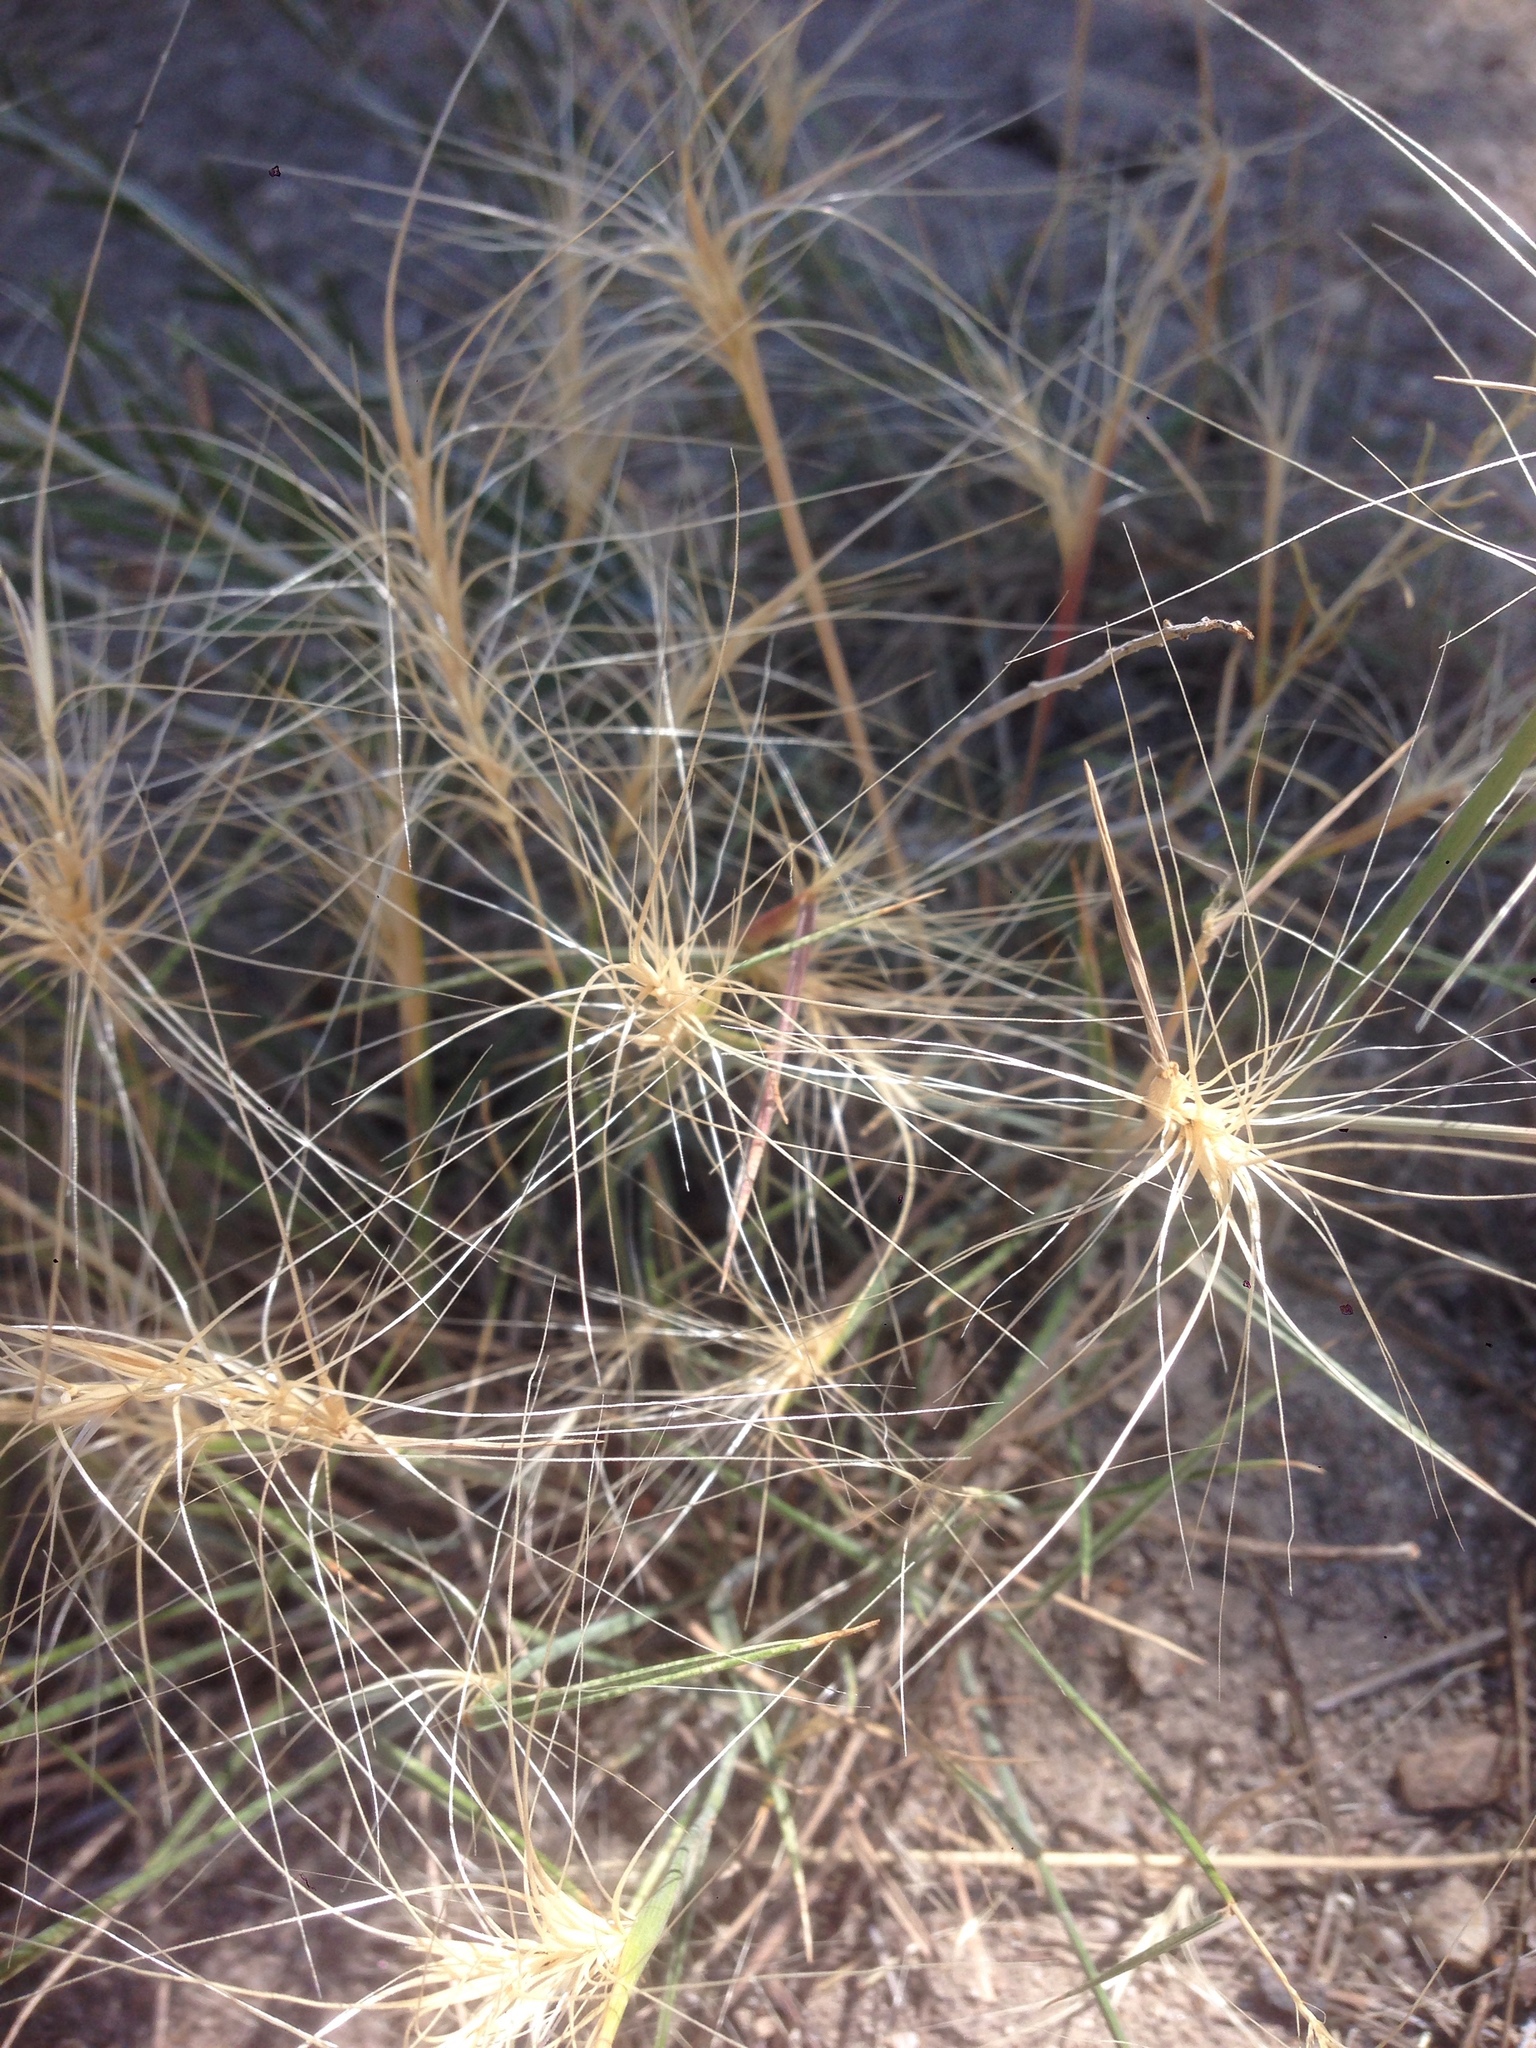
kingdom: Plantae
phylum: Tracheophyta
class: Liliopsida
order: Poales
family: Poaceae
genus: Elymus
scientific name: Elymus elymoides
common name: Bottlebrush squirreltail
